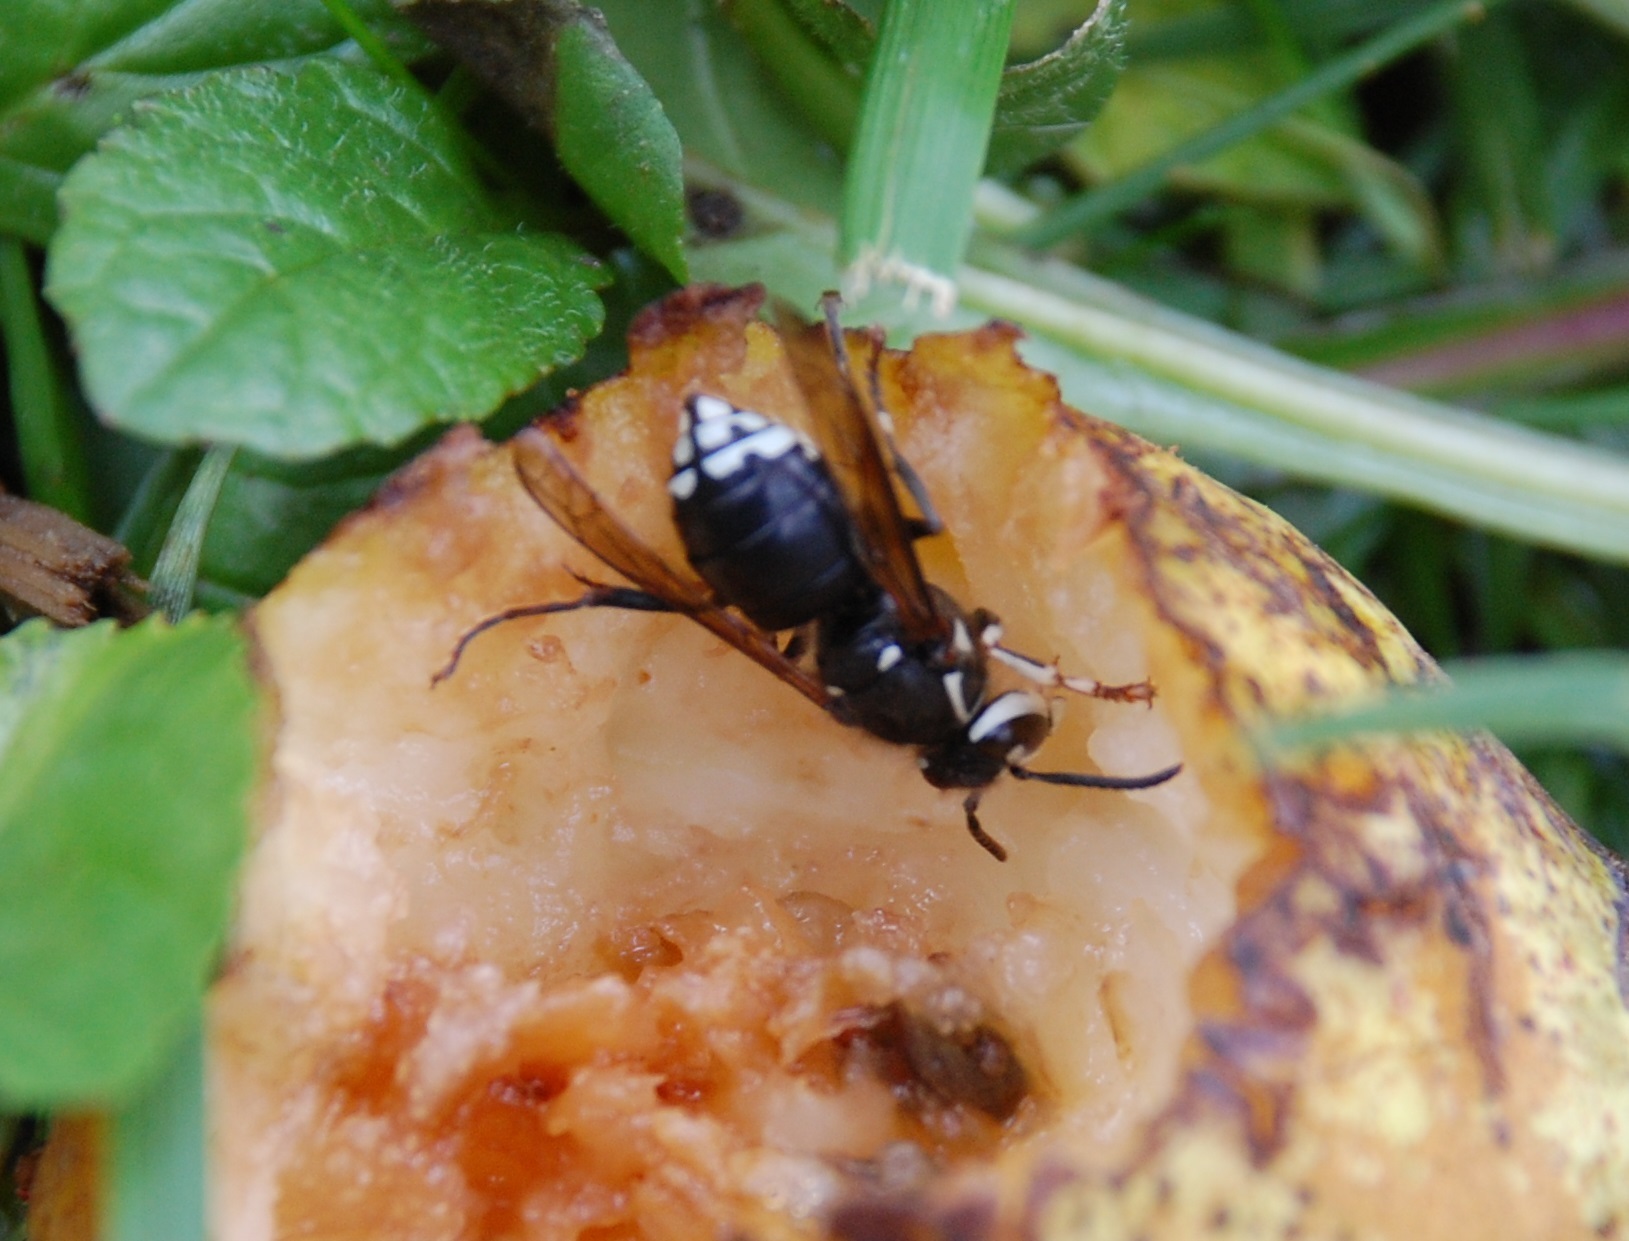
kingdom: Animalia
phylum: Arthropoda
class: Insecta
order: Hymenoptera
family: Vespidae
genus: Dolichovespula
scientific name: Dolichovespula maculata
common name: Bald-faced hornet
